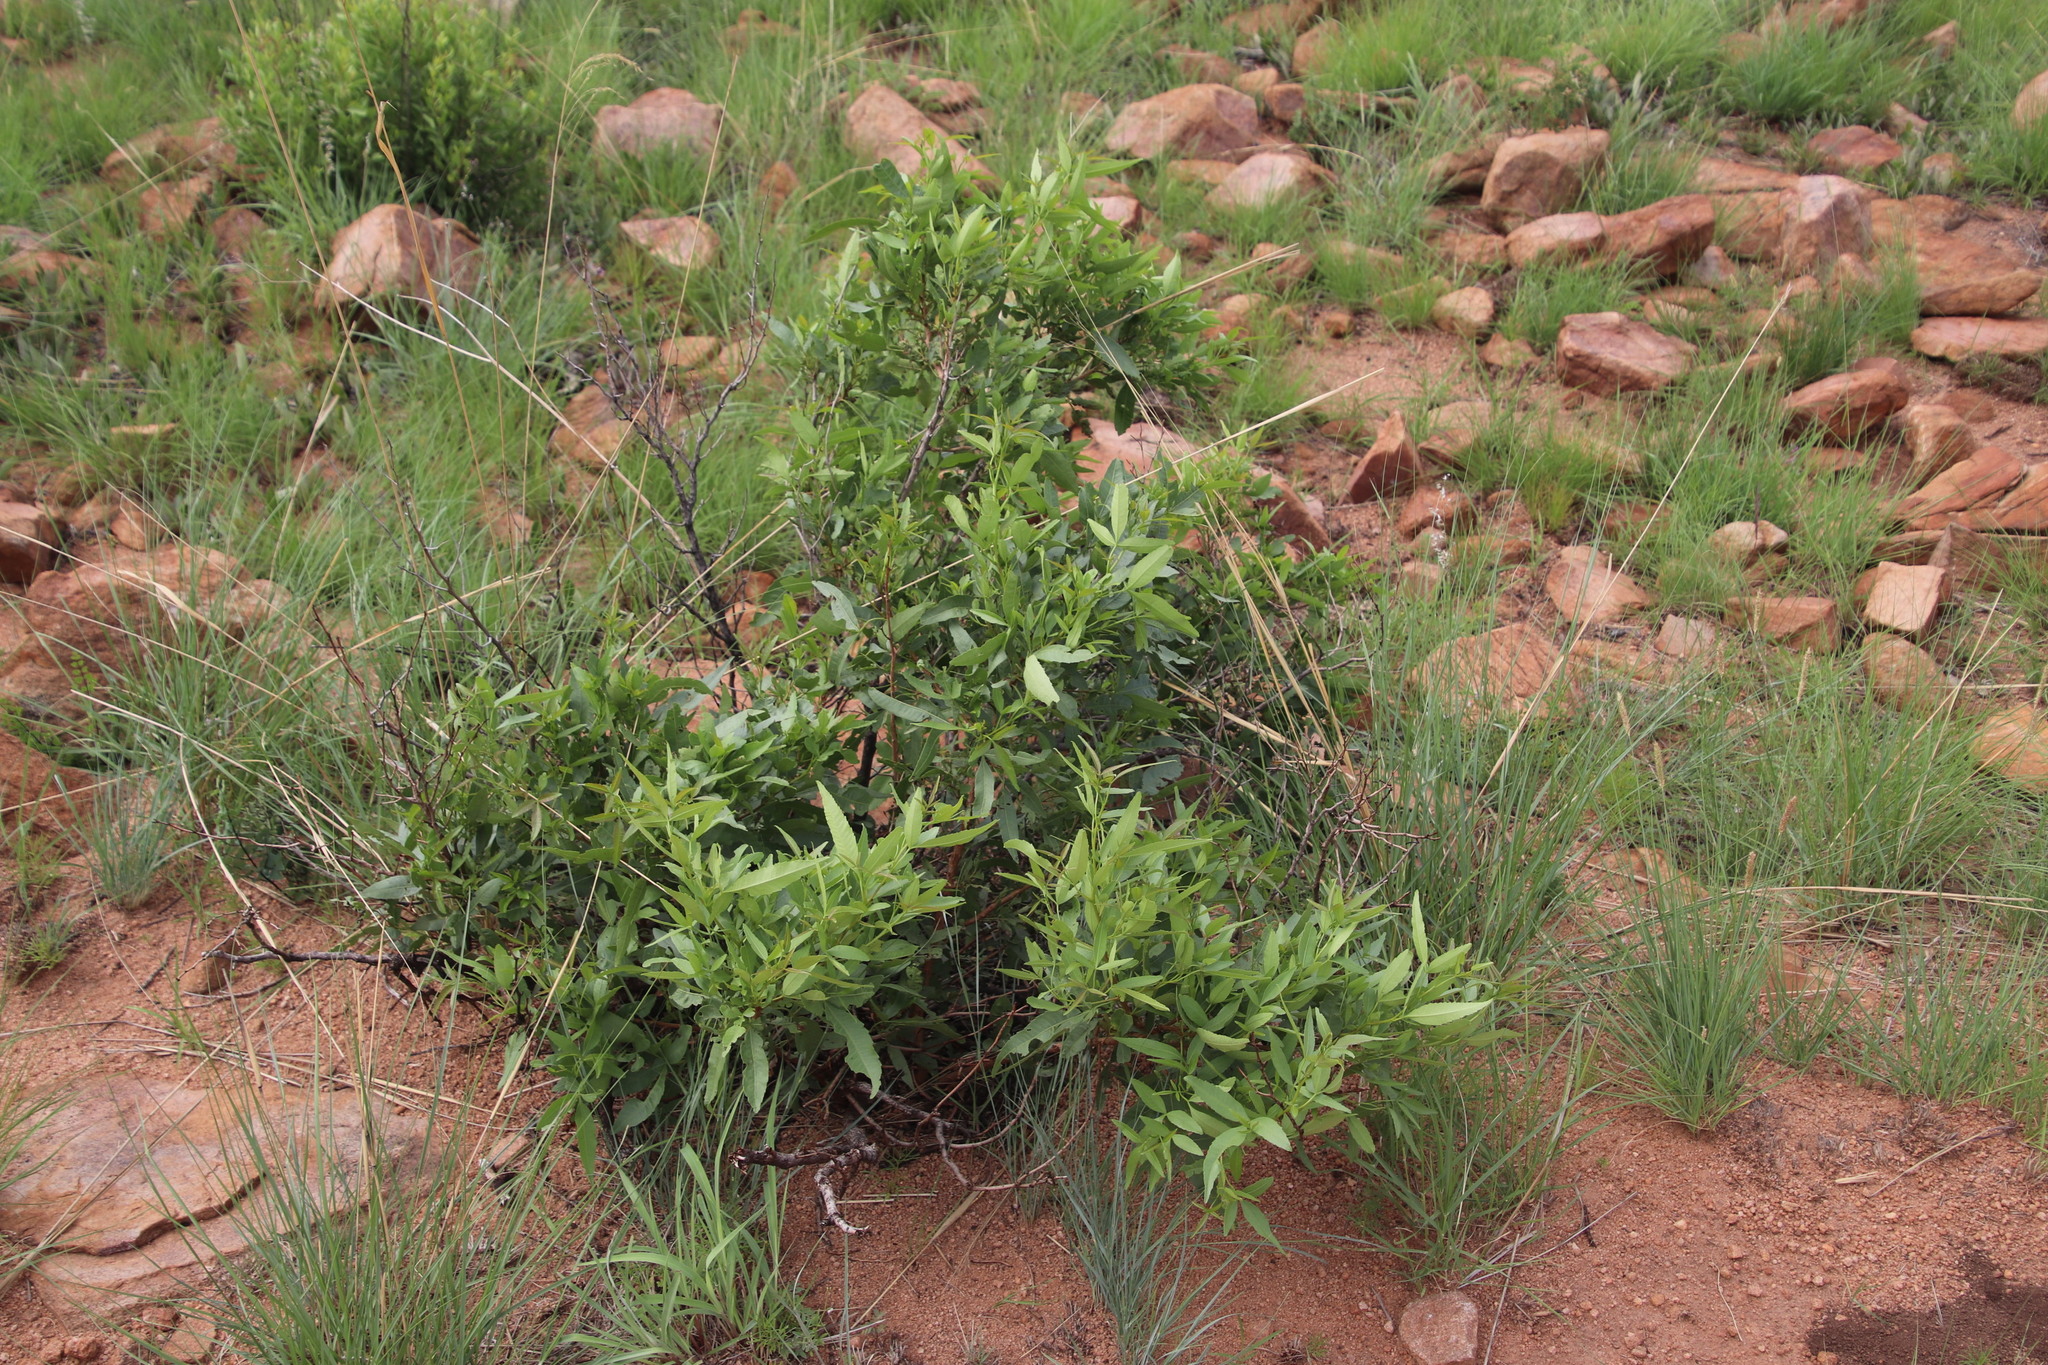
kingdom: Plantae
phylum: Tracheophyta
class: Magnoliopsida
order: Sapindales
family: Anacardiaceae
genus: Searsia
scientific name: Searsia leptodictya
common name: Mountain karee
